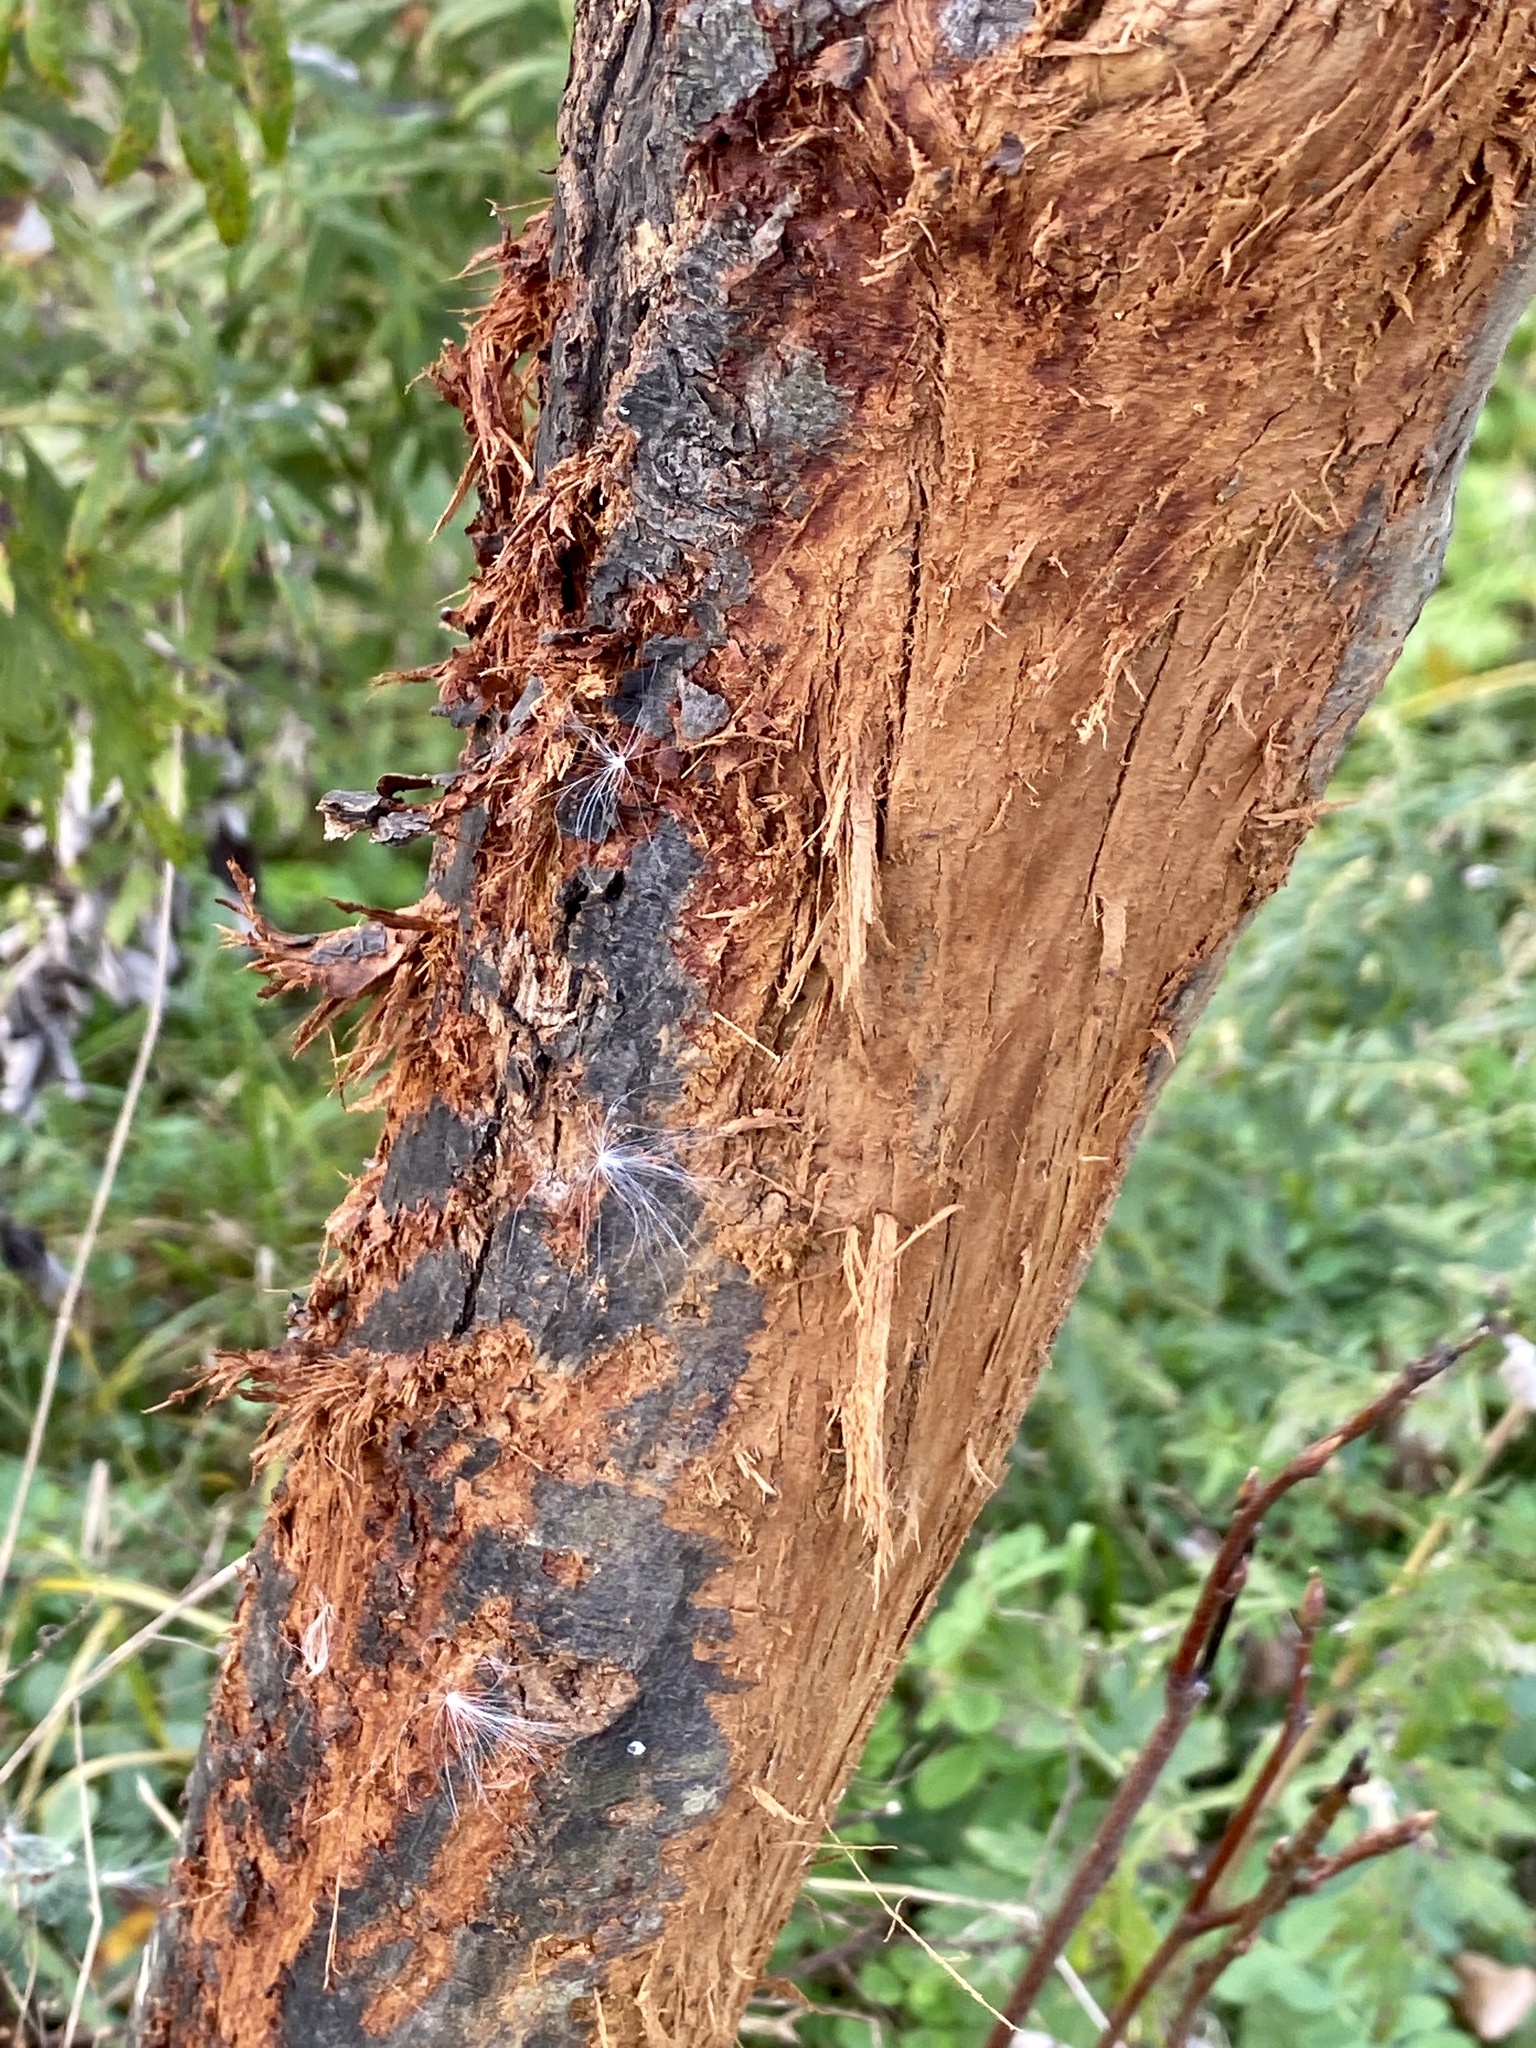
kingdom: Animalia
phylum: Chordata
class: Mammalia
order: Artiodactyla
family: Cervidae
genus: Odocoileus
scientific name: Odocoileus virginianus
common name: White-tailed deer
